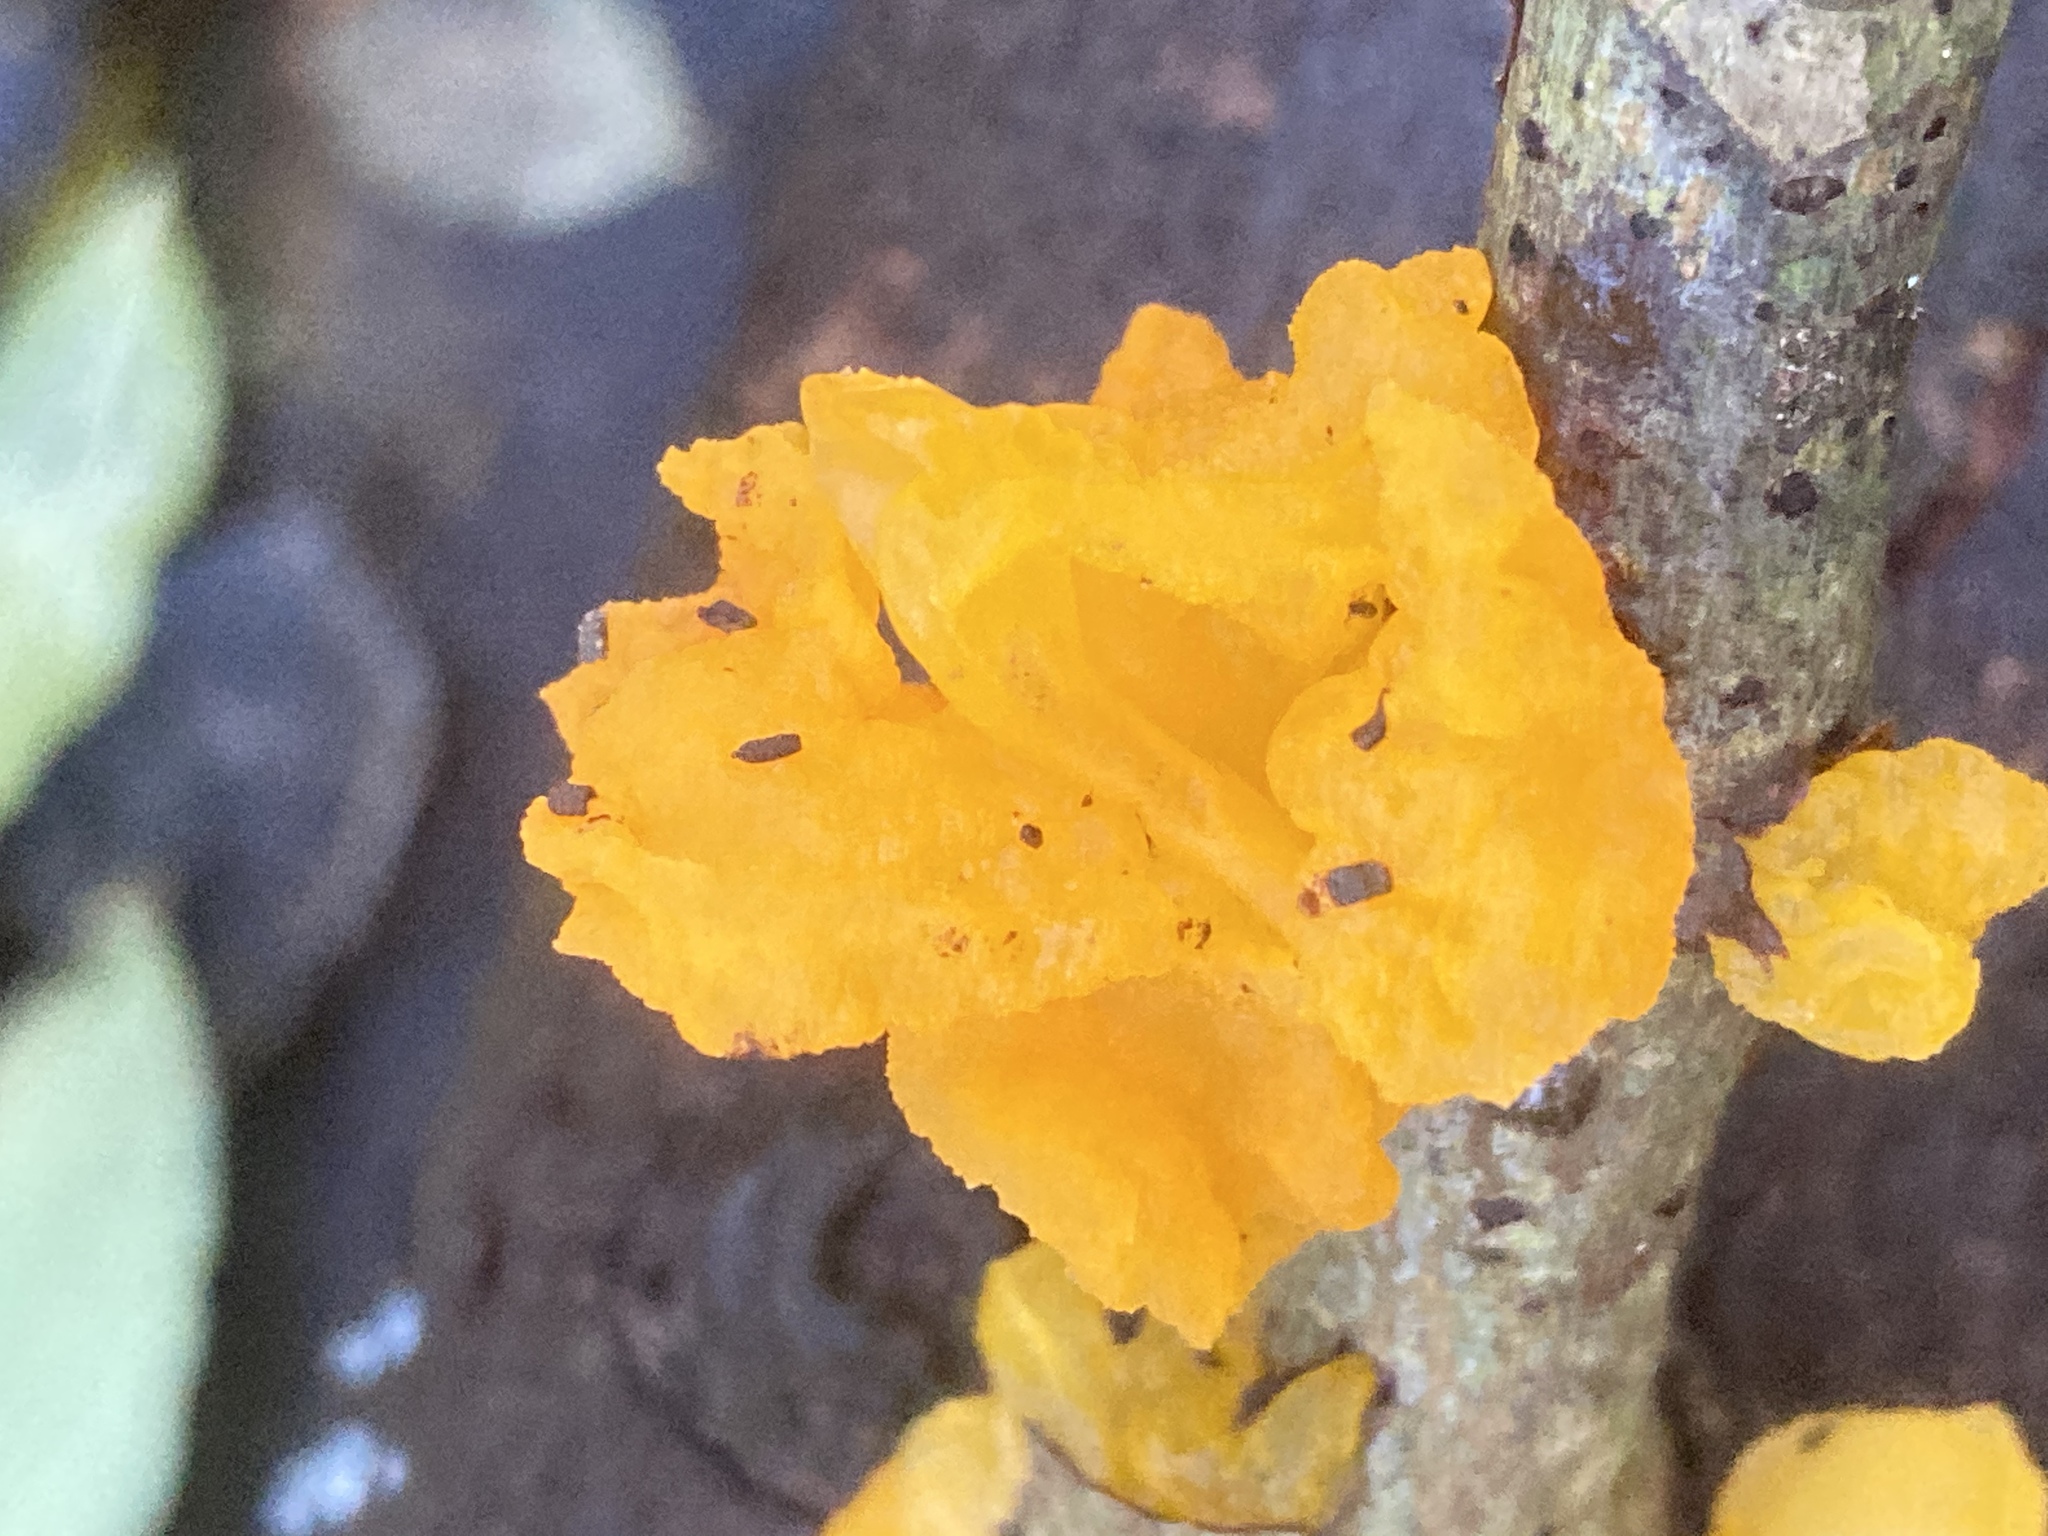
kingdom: Fungi
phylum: Basidiomycota
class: Tremellomycetes
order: Tremellales
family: Tremellaceae
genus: Tremella
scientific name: Tremella mesenterica
